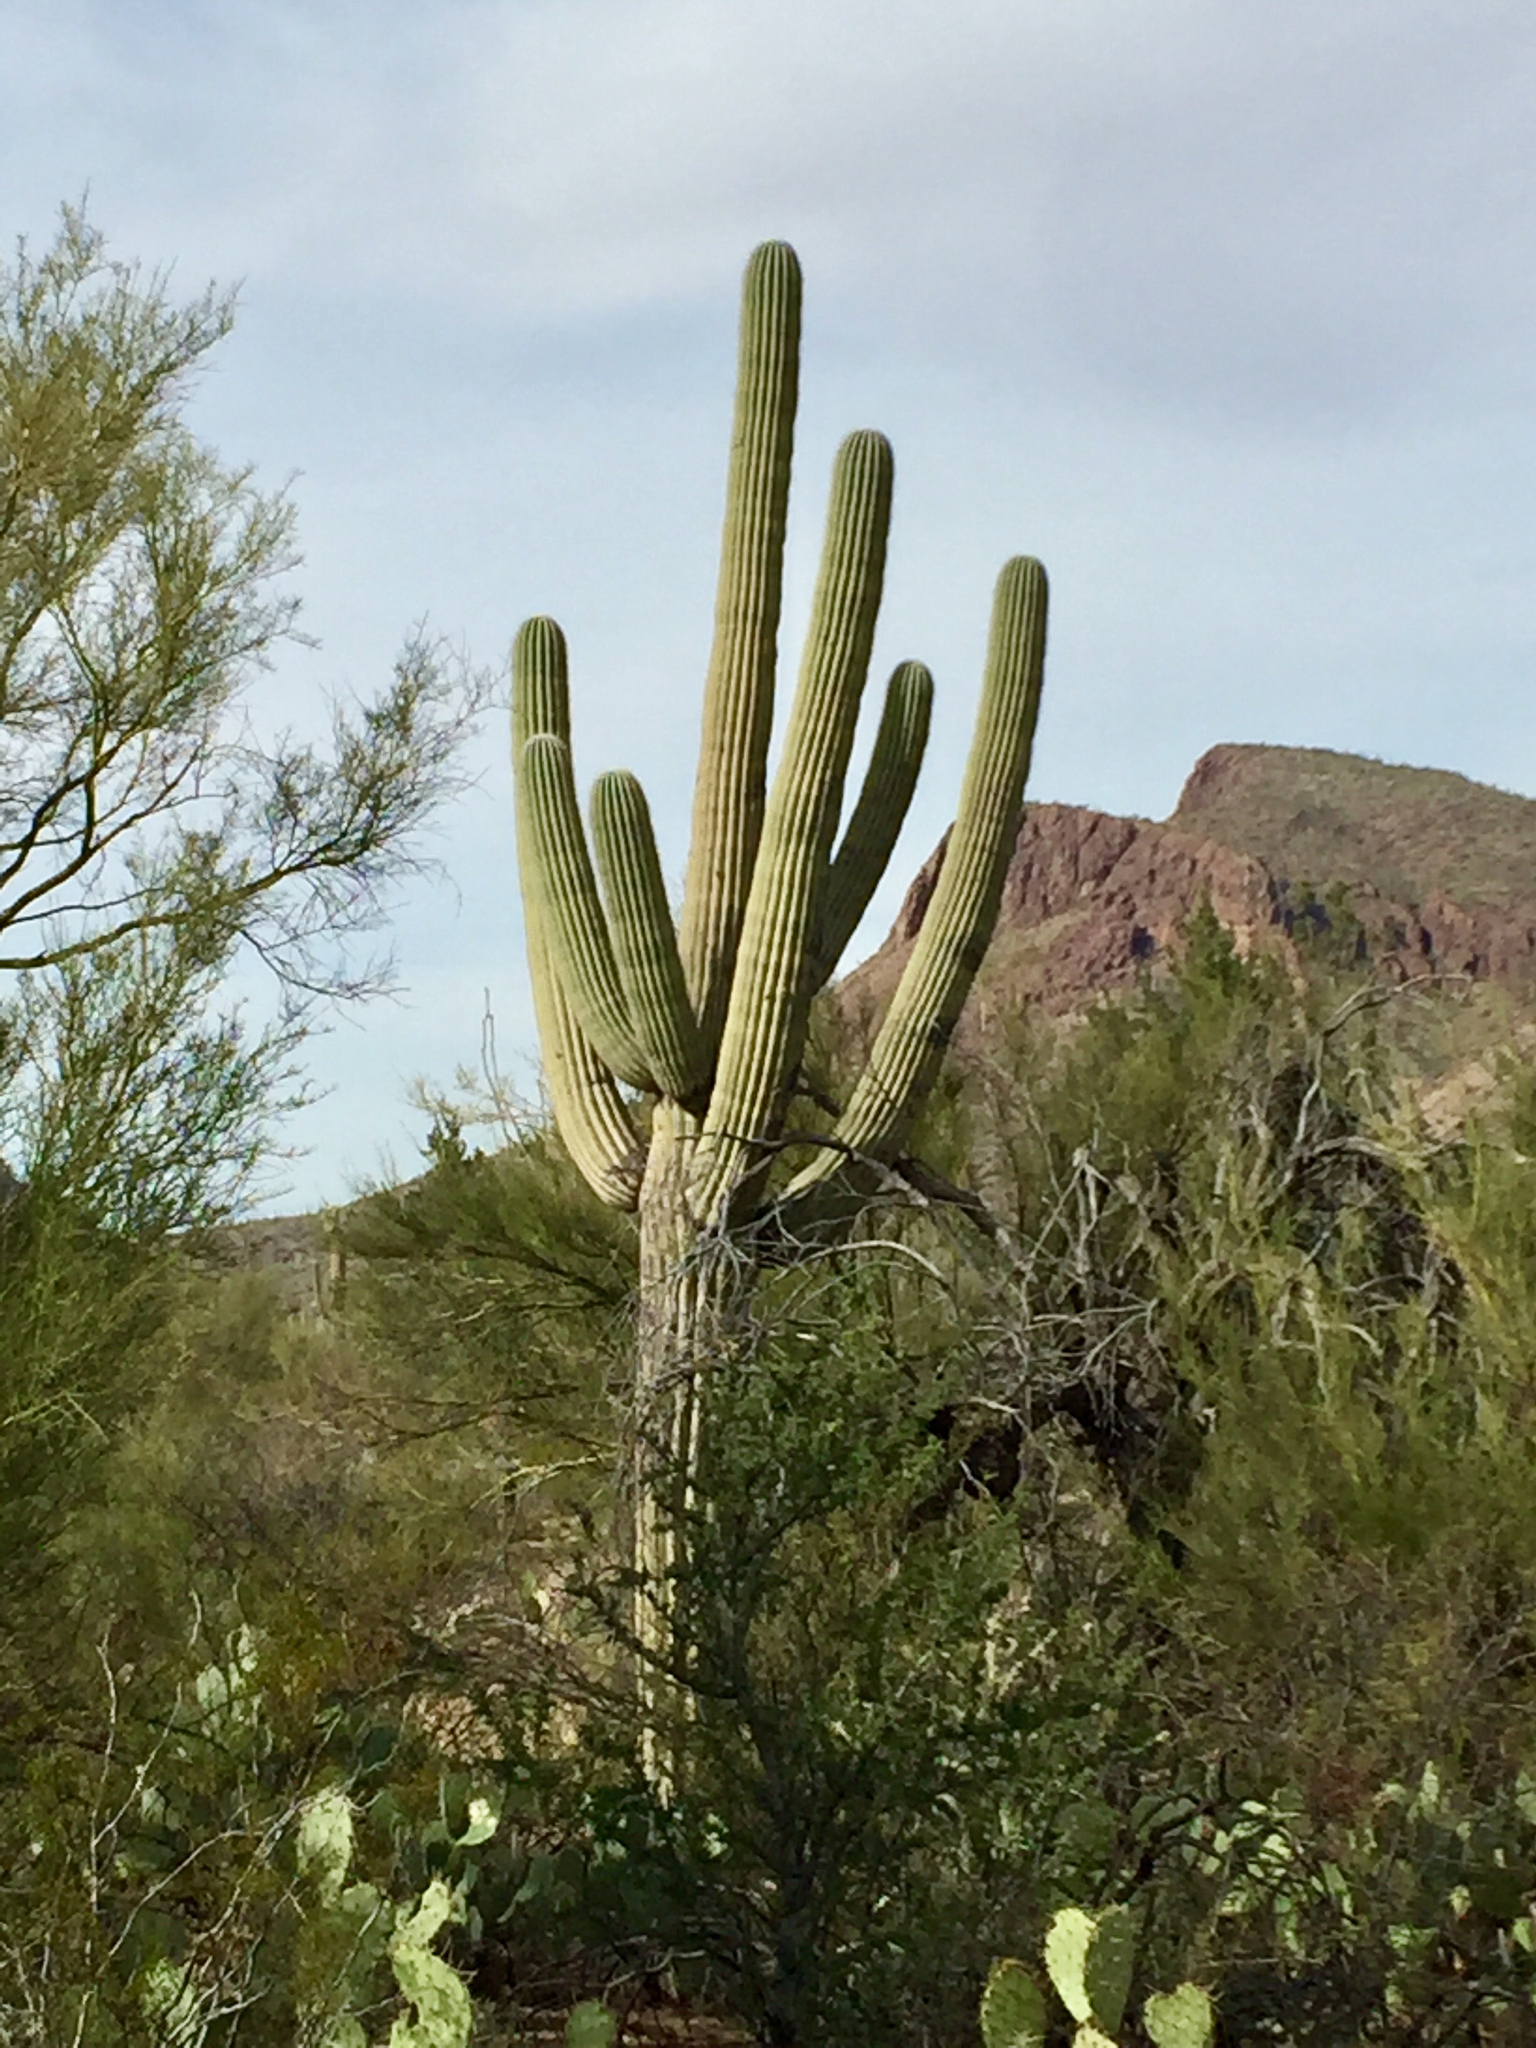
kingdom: Plantae
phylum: Tracheophyta
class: Magnoliopsida
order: Caryophyllales
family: Cactaceae
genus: Carnegiea
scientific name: Carnegiea gigantea
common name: Saguaro
